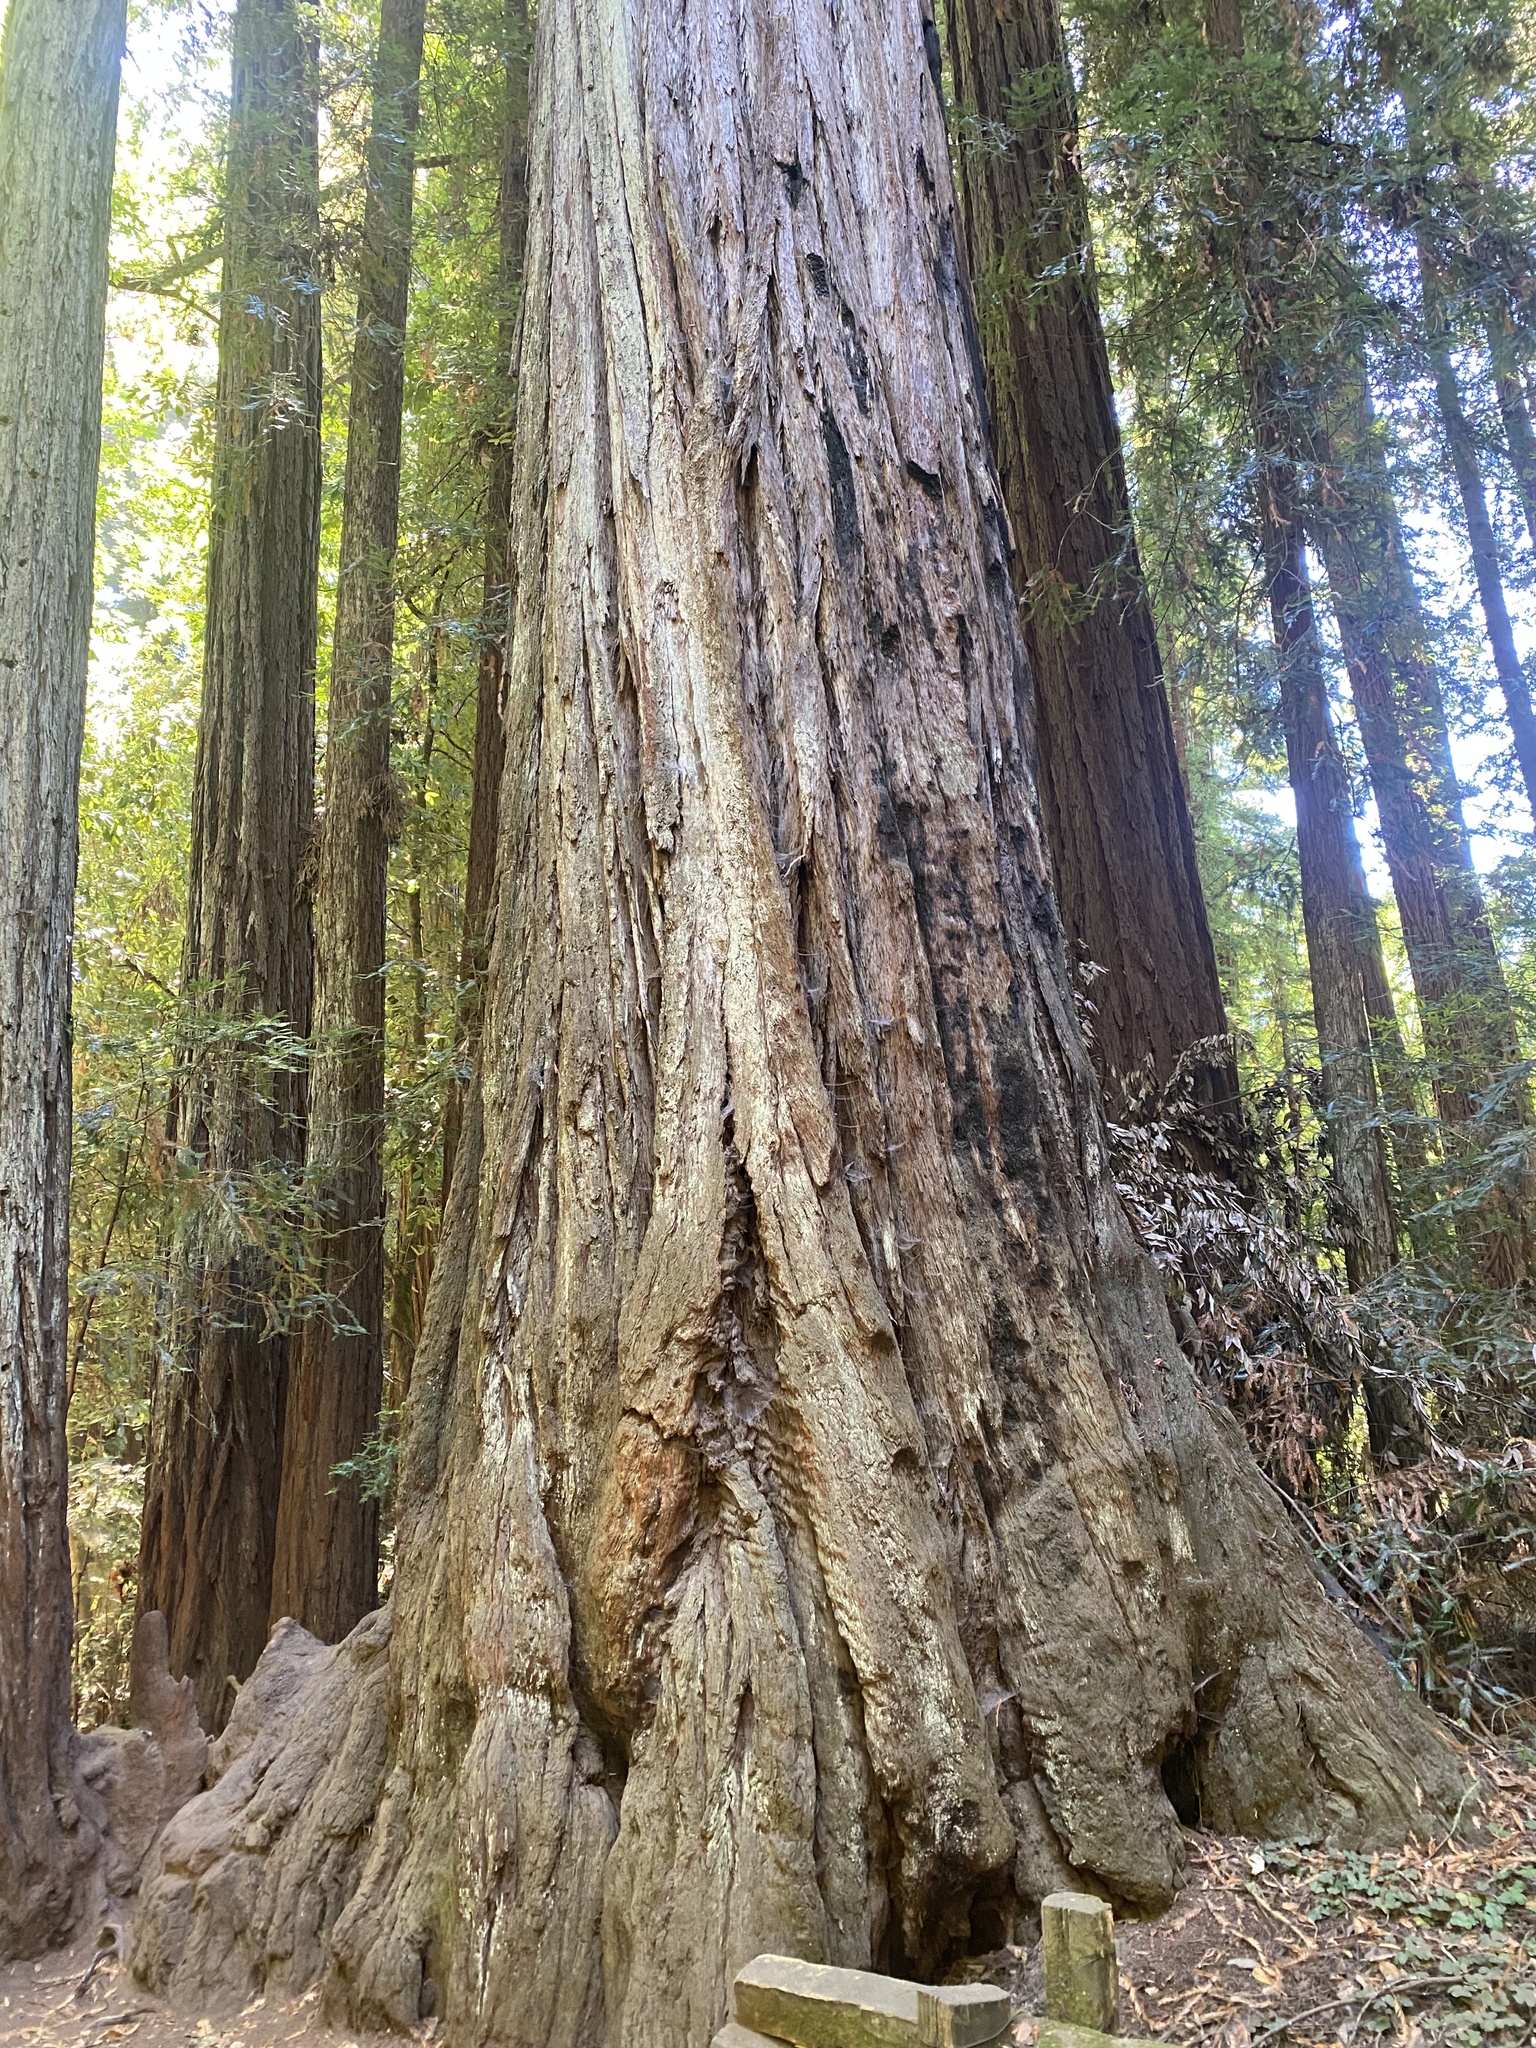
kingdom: Plantae
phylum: Tracheophyta
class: Pinopsida
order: Pinales
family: Cupressaceae
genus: Sequoia
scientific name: Sequoia sempervirens
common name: Coast redwood
